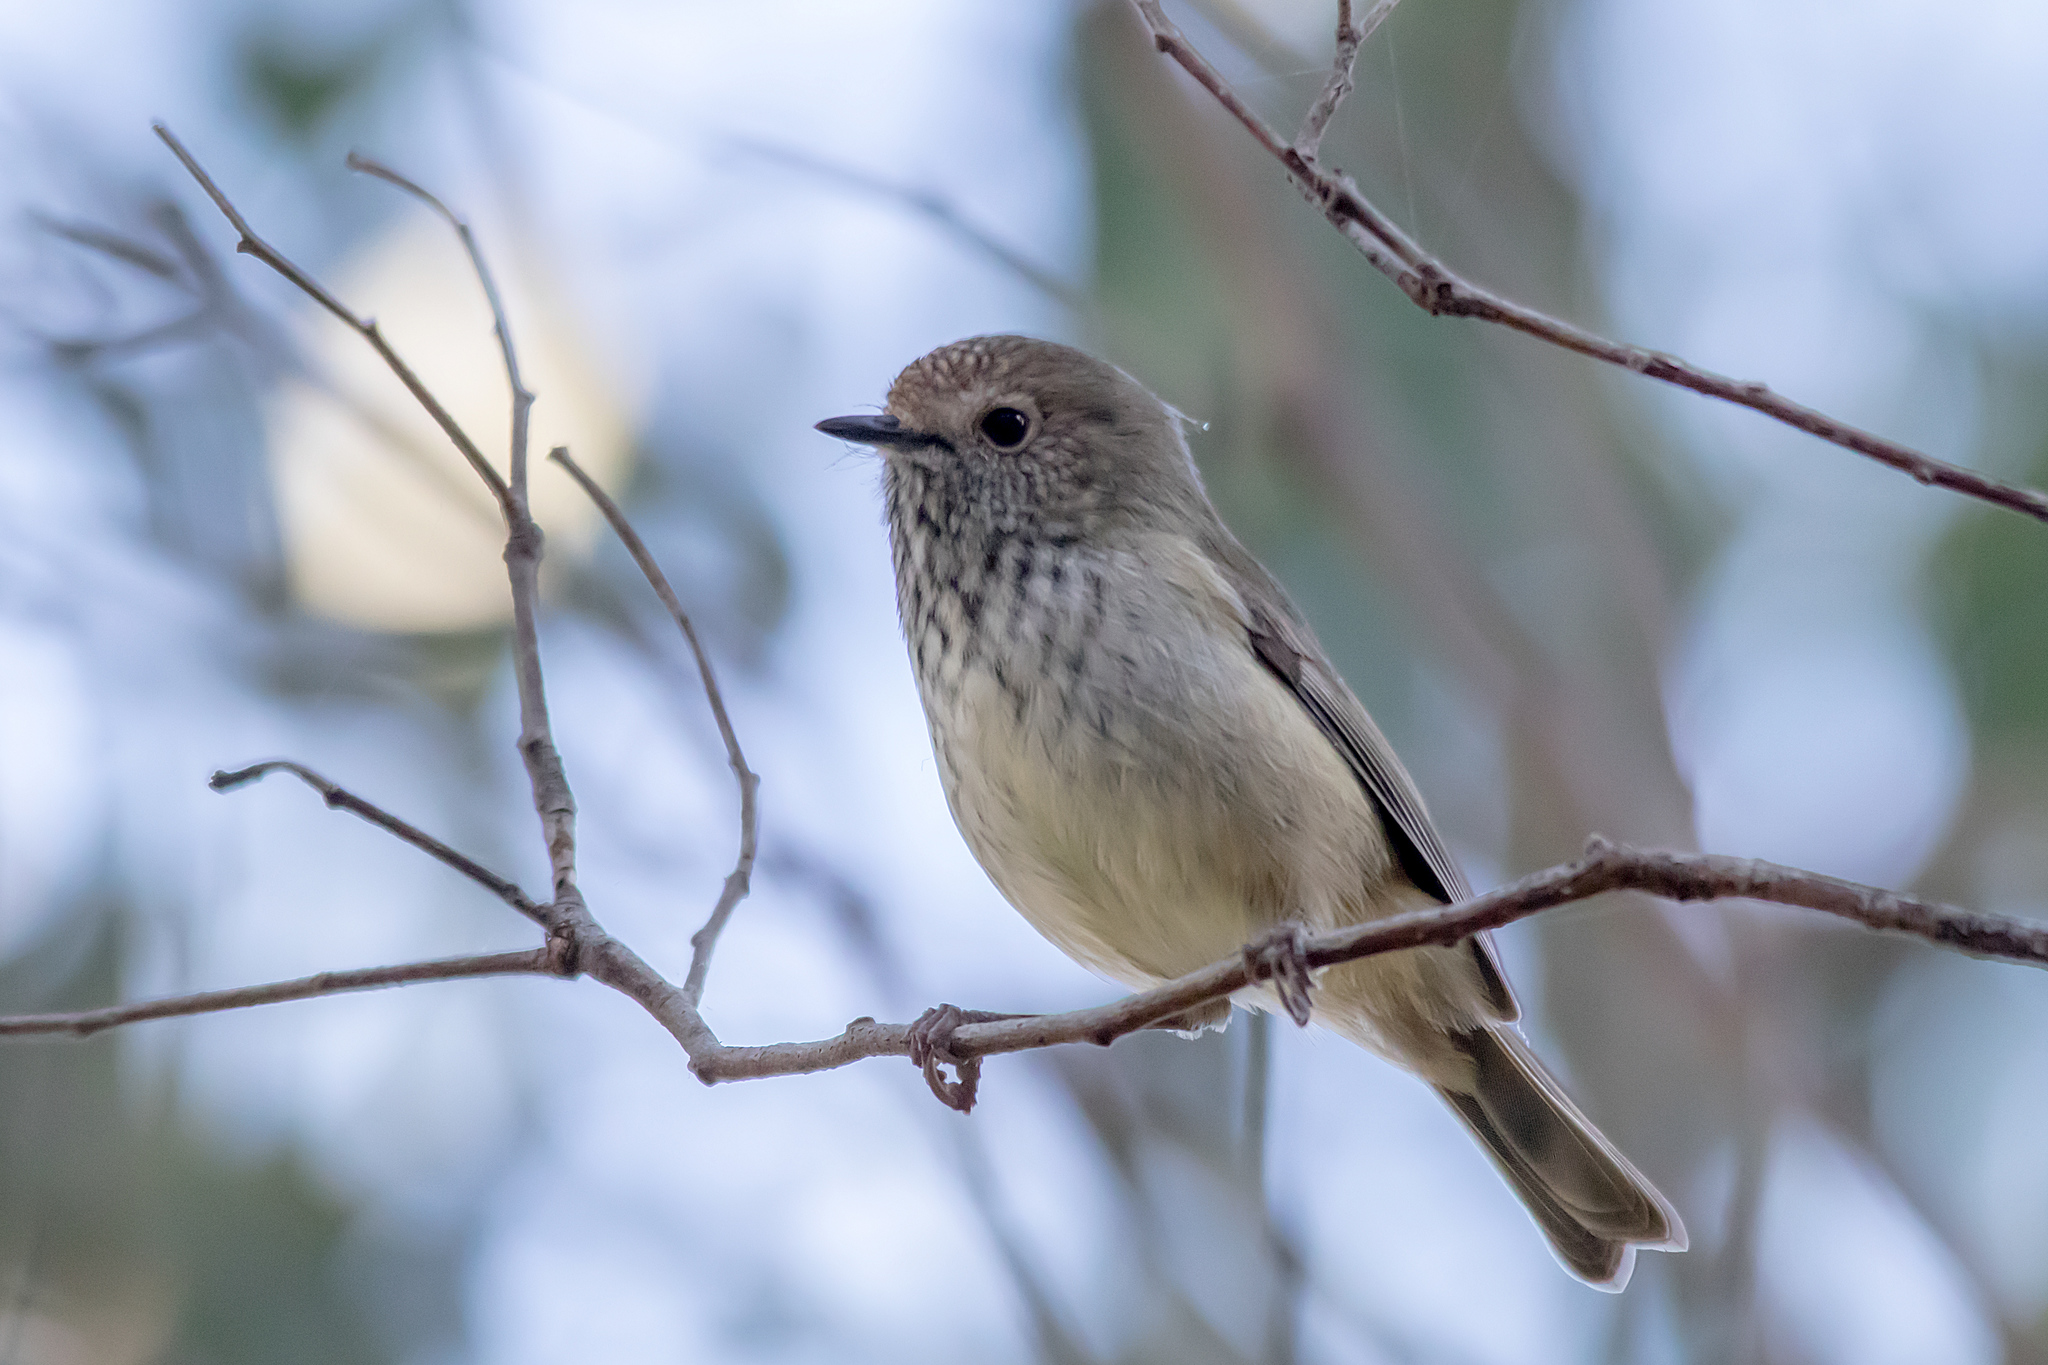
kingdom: Animalia
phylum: Chordata
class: Aves
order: Passeriformes
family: Acanthizidae
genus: Acanthiza
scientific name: Acanthiza pusilla
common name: Brown thornbill
